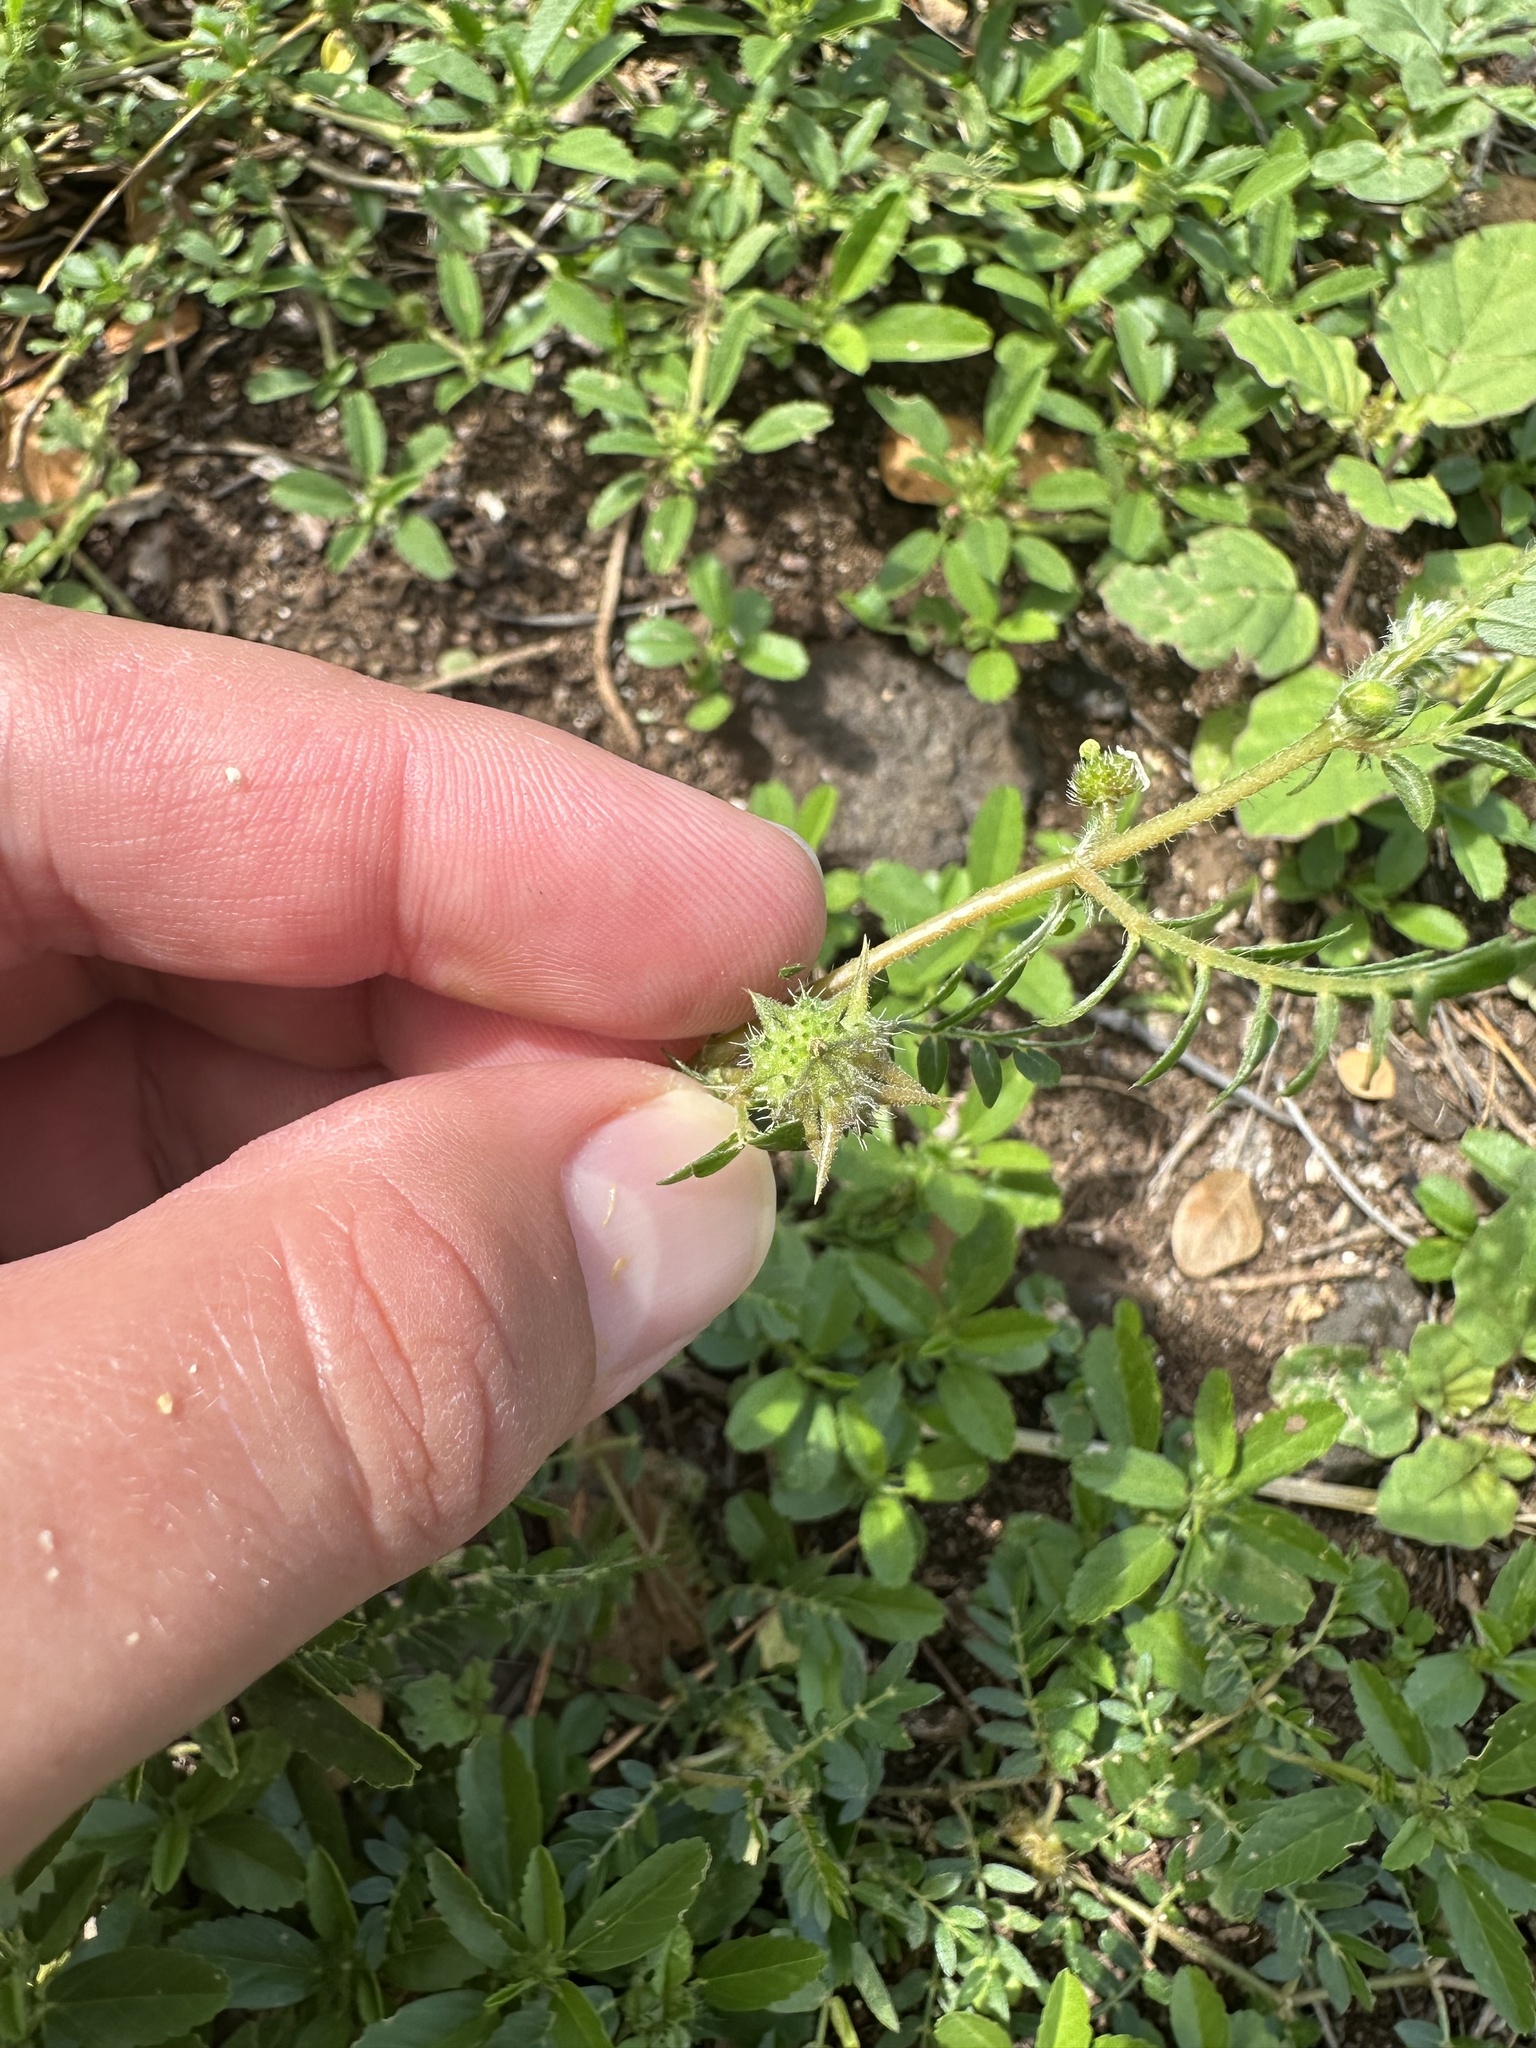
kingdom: Plantae
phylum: Tracheophyta
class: Magnoliopsida
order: Zygophyllales
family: Zygophyllaceae
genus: Tribulus
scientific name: Tribulus terrestris
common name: Puncturevine
